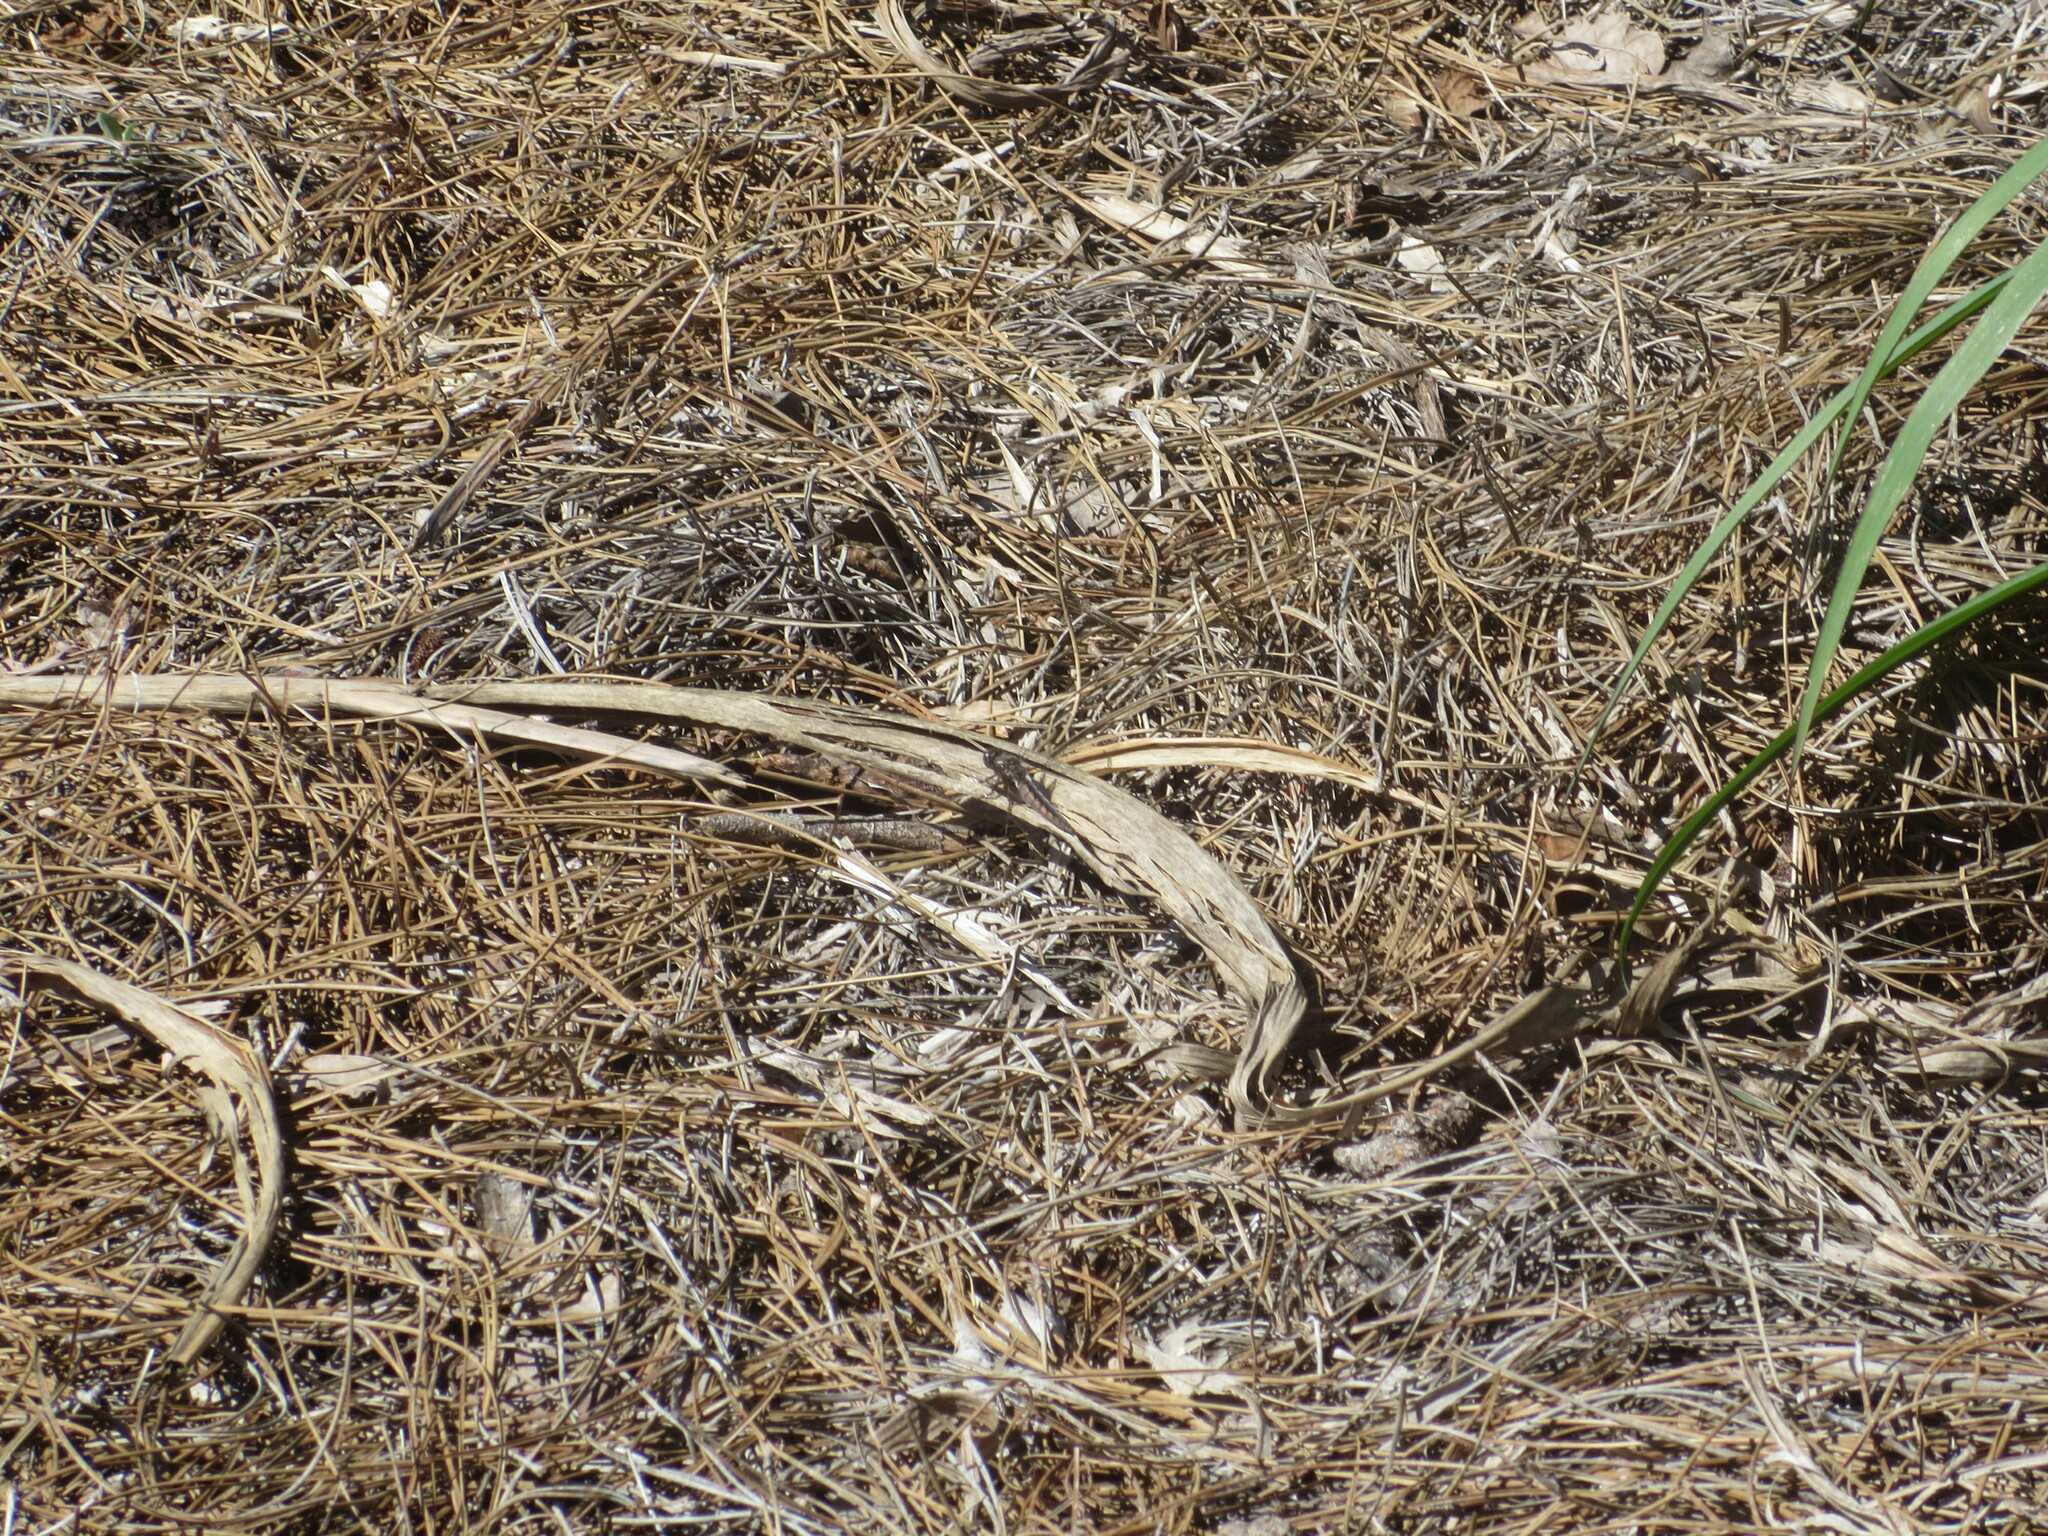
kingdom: Animalia
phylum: Arthropoda
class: Insecta
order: Odonata
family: Libellulidae
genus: Ladona
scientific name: Ladona deplanata
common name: Blue corporal
